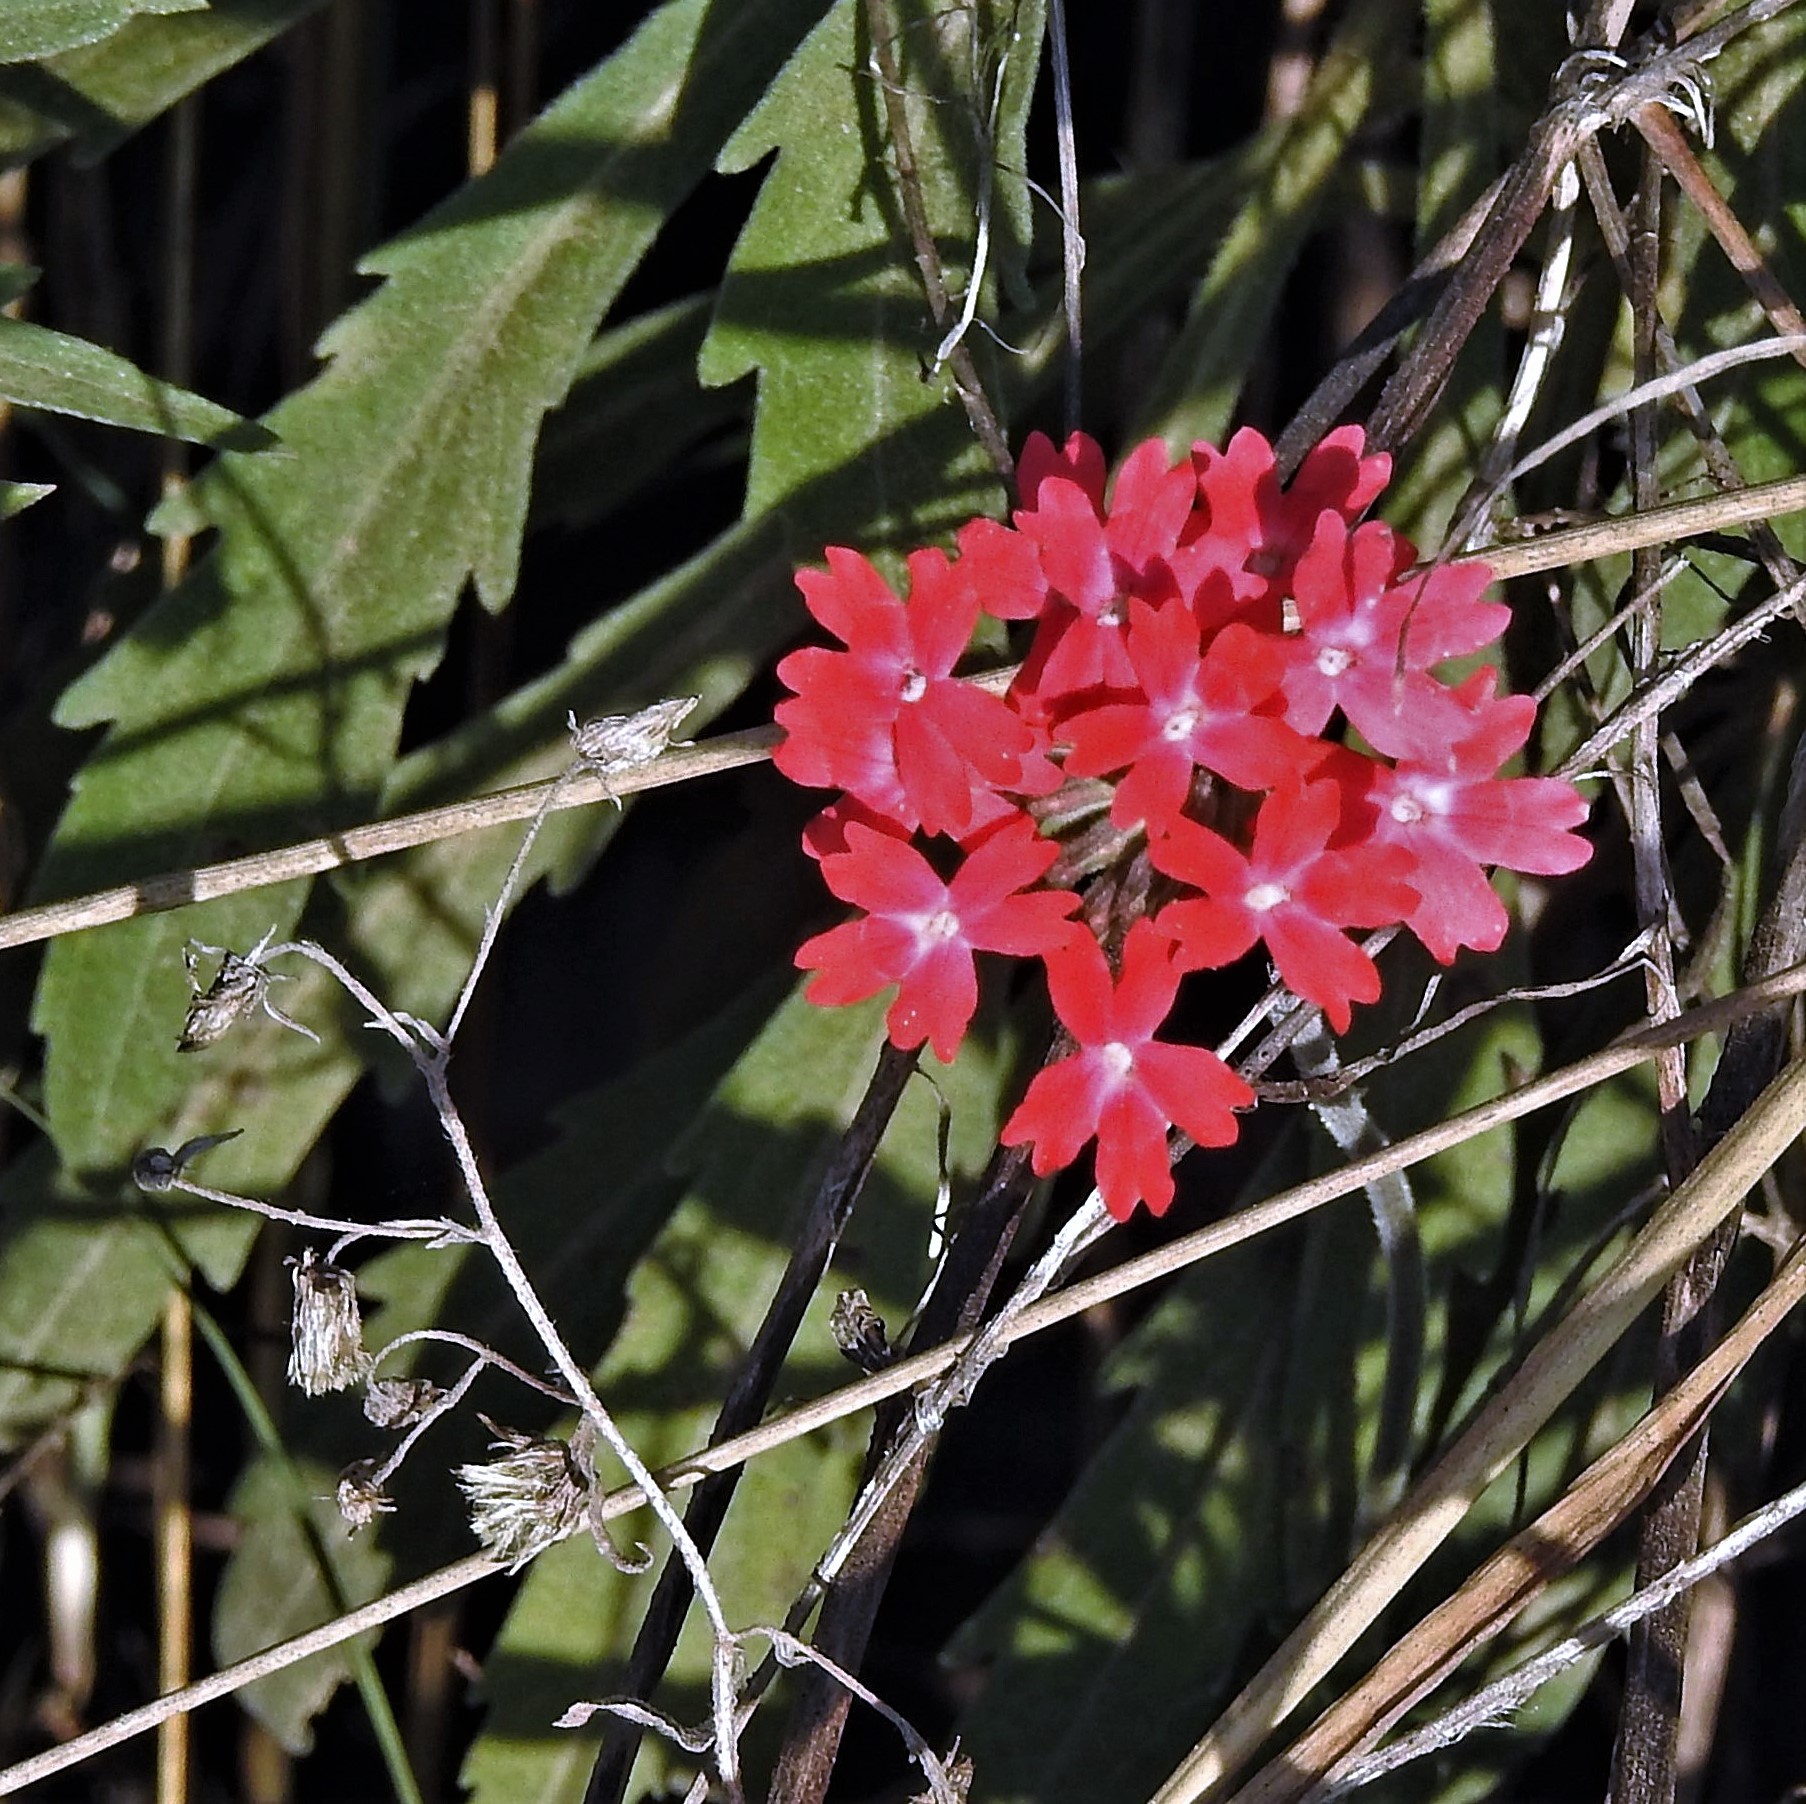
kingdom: Plantae
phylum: Tracheophyta
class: Magnoliopsida
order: Lamiales
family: Verbenaceae
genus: Verbena
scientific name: Verbena peruviana
